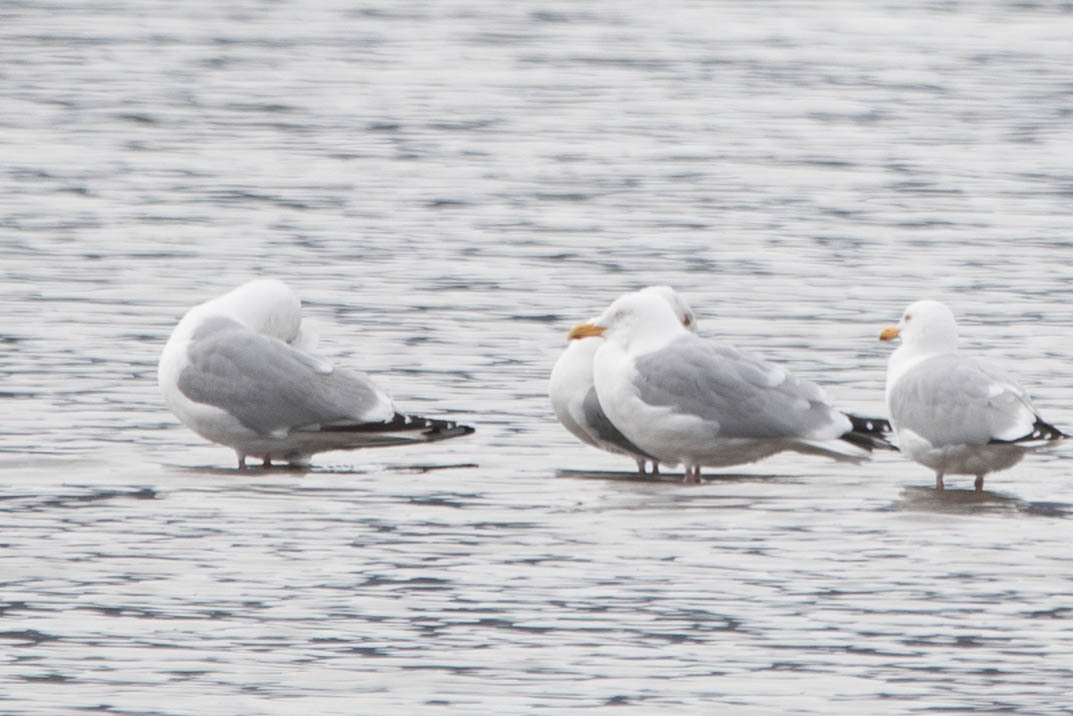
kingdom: Animalia
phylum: Chordata
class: Aves
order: Charadriiformes
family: Laridae
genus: Larus
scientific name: Larus argentatus
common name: Herring gull
